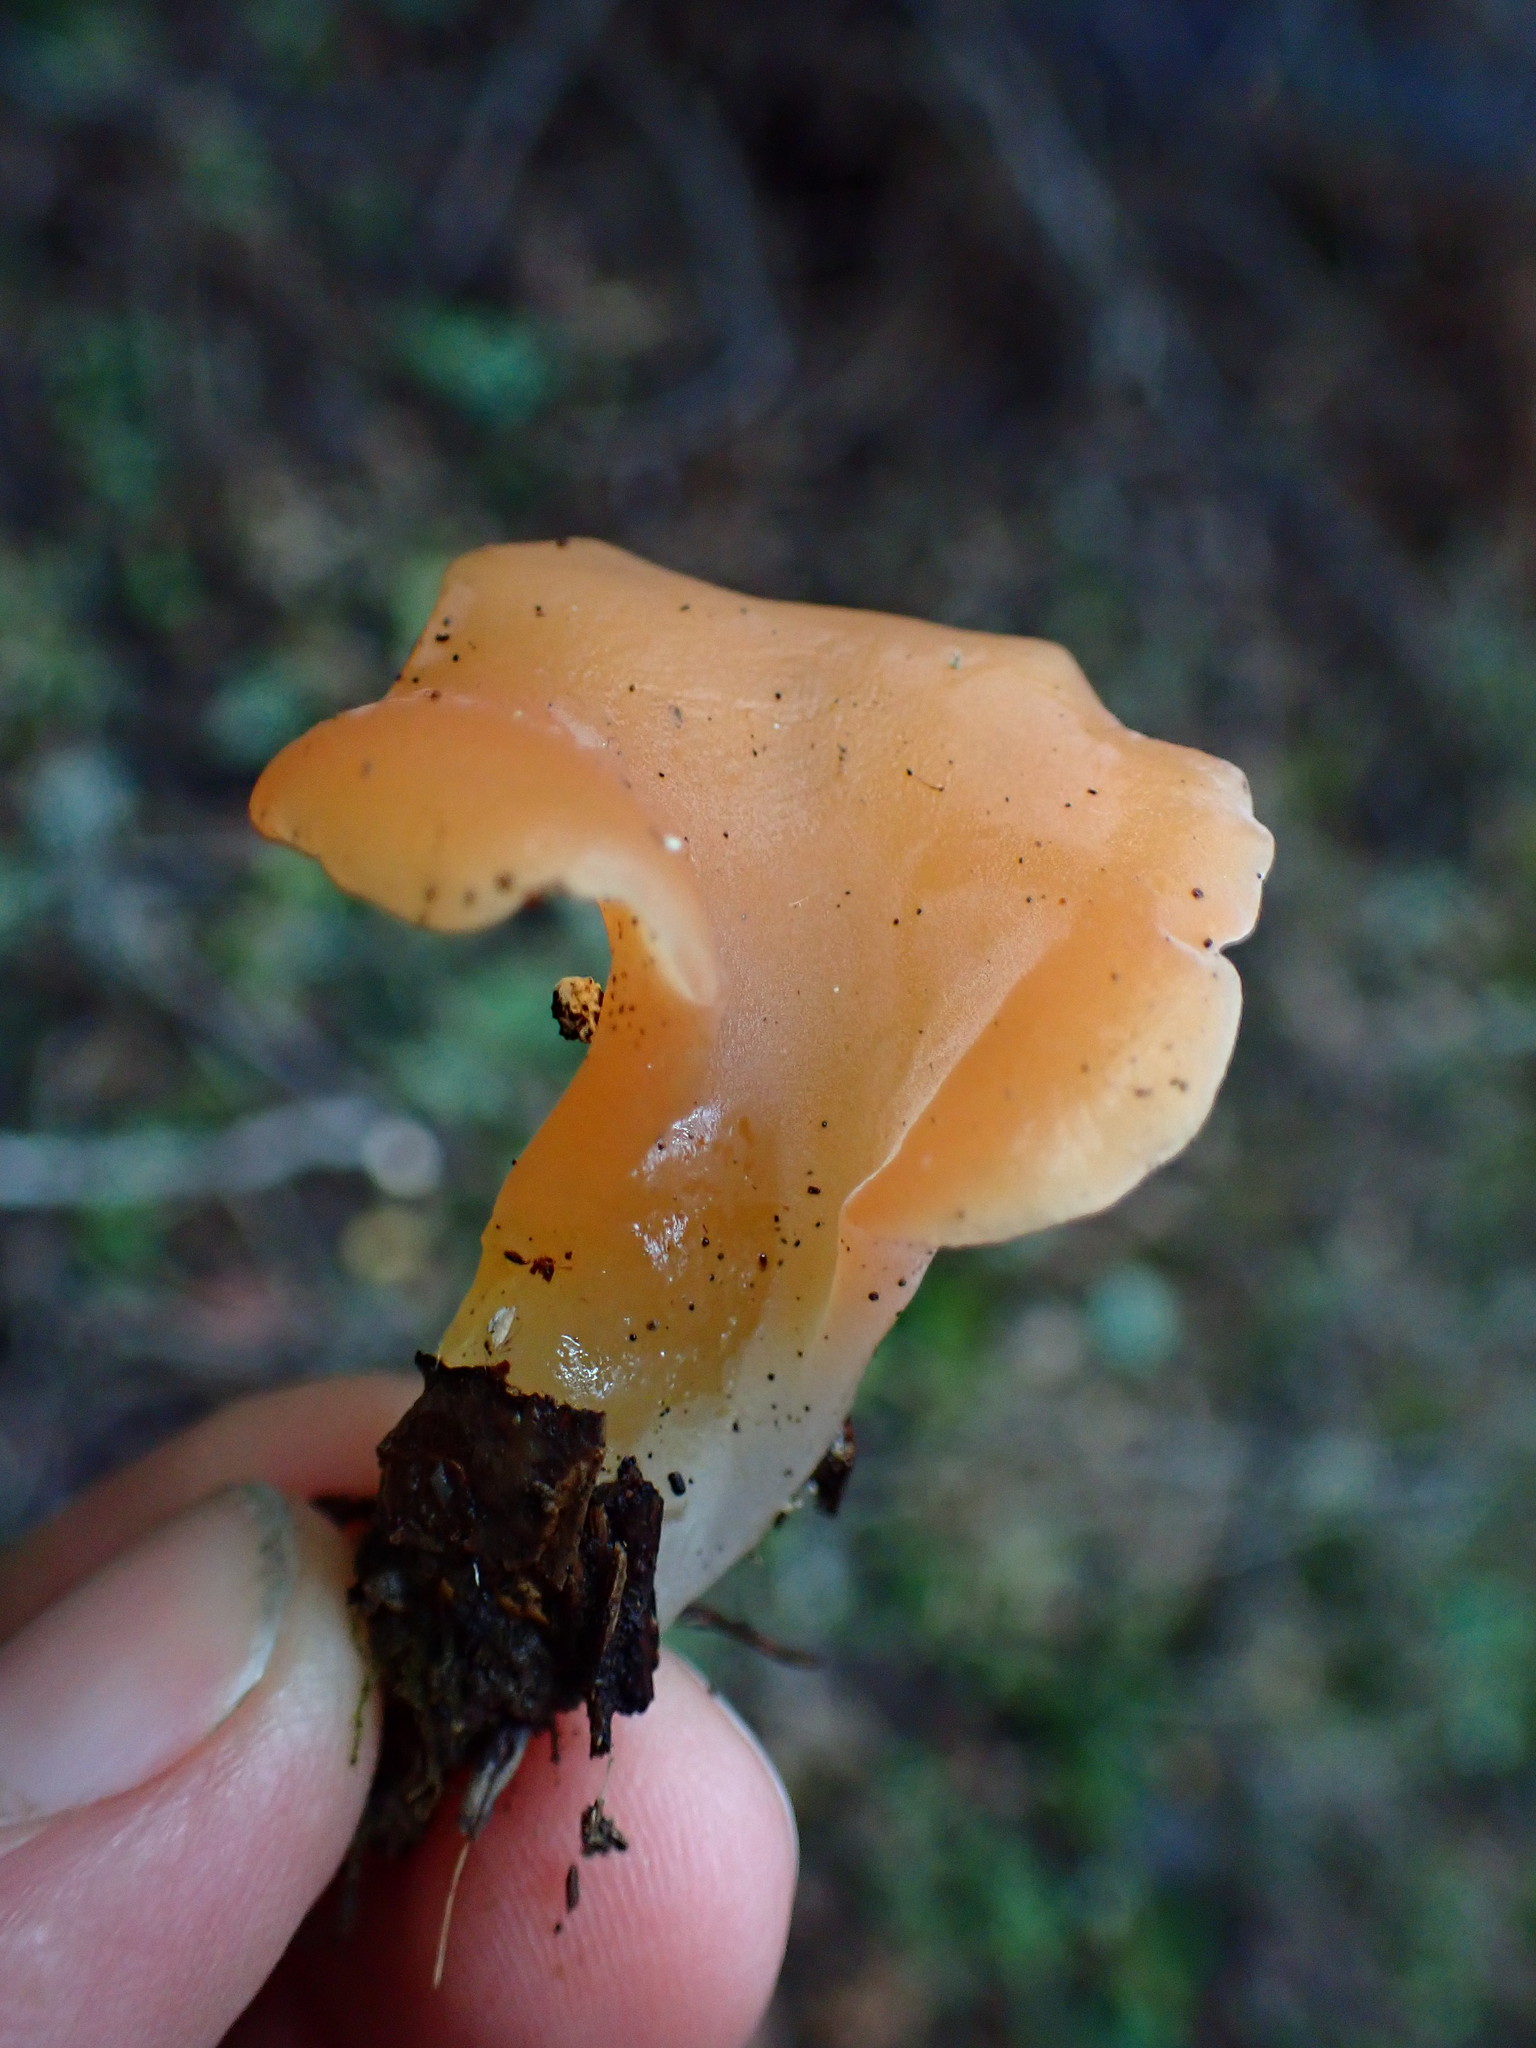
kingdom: Fungi
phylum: Basidiomycota
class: Agaricomycetes
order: Auriculariales
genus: Guepinia
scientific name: Guepinia helvelloides
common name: Salmon salad
